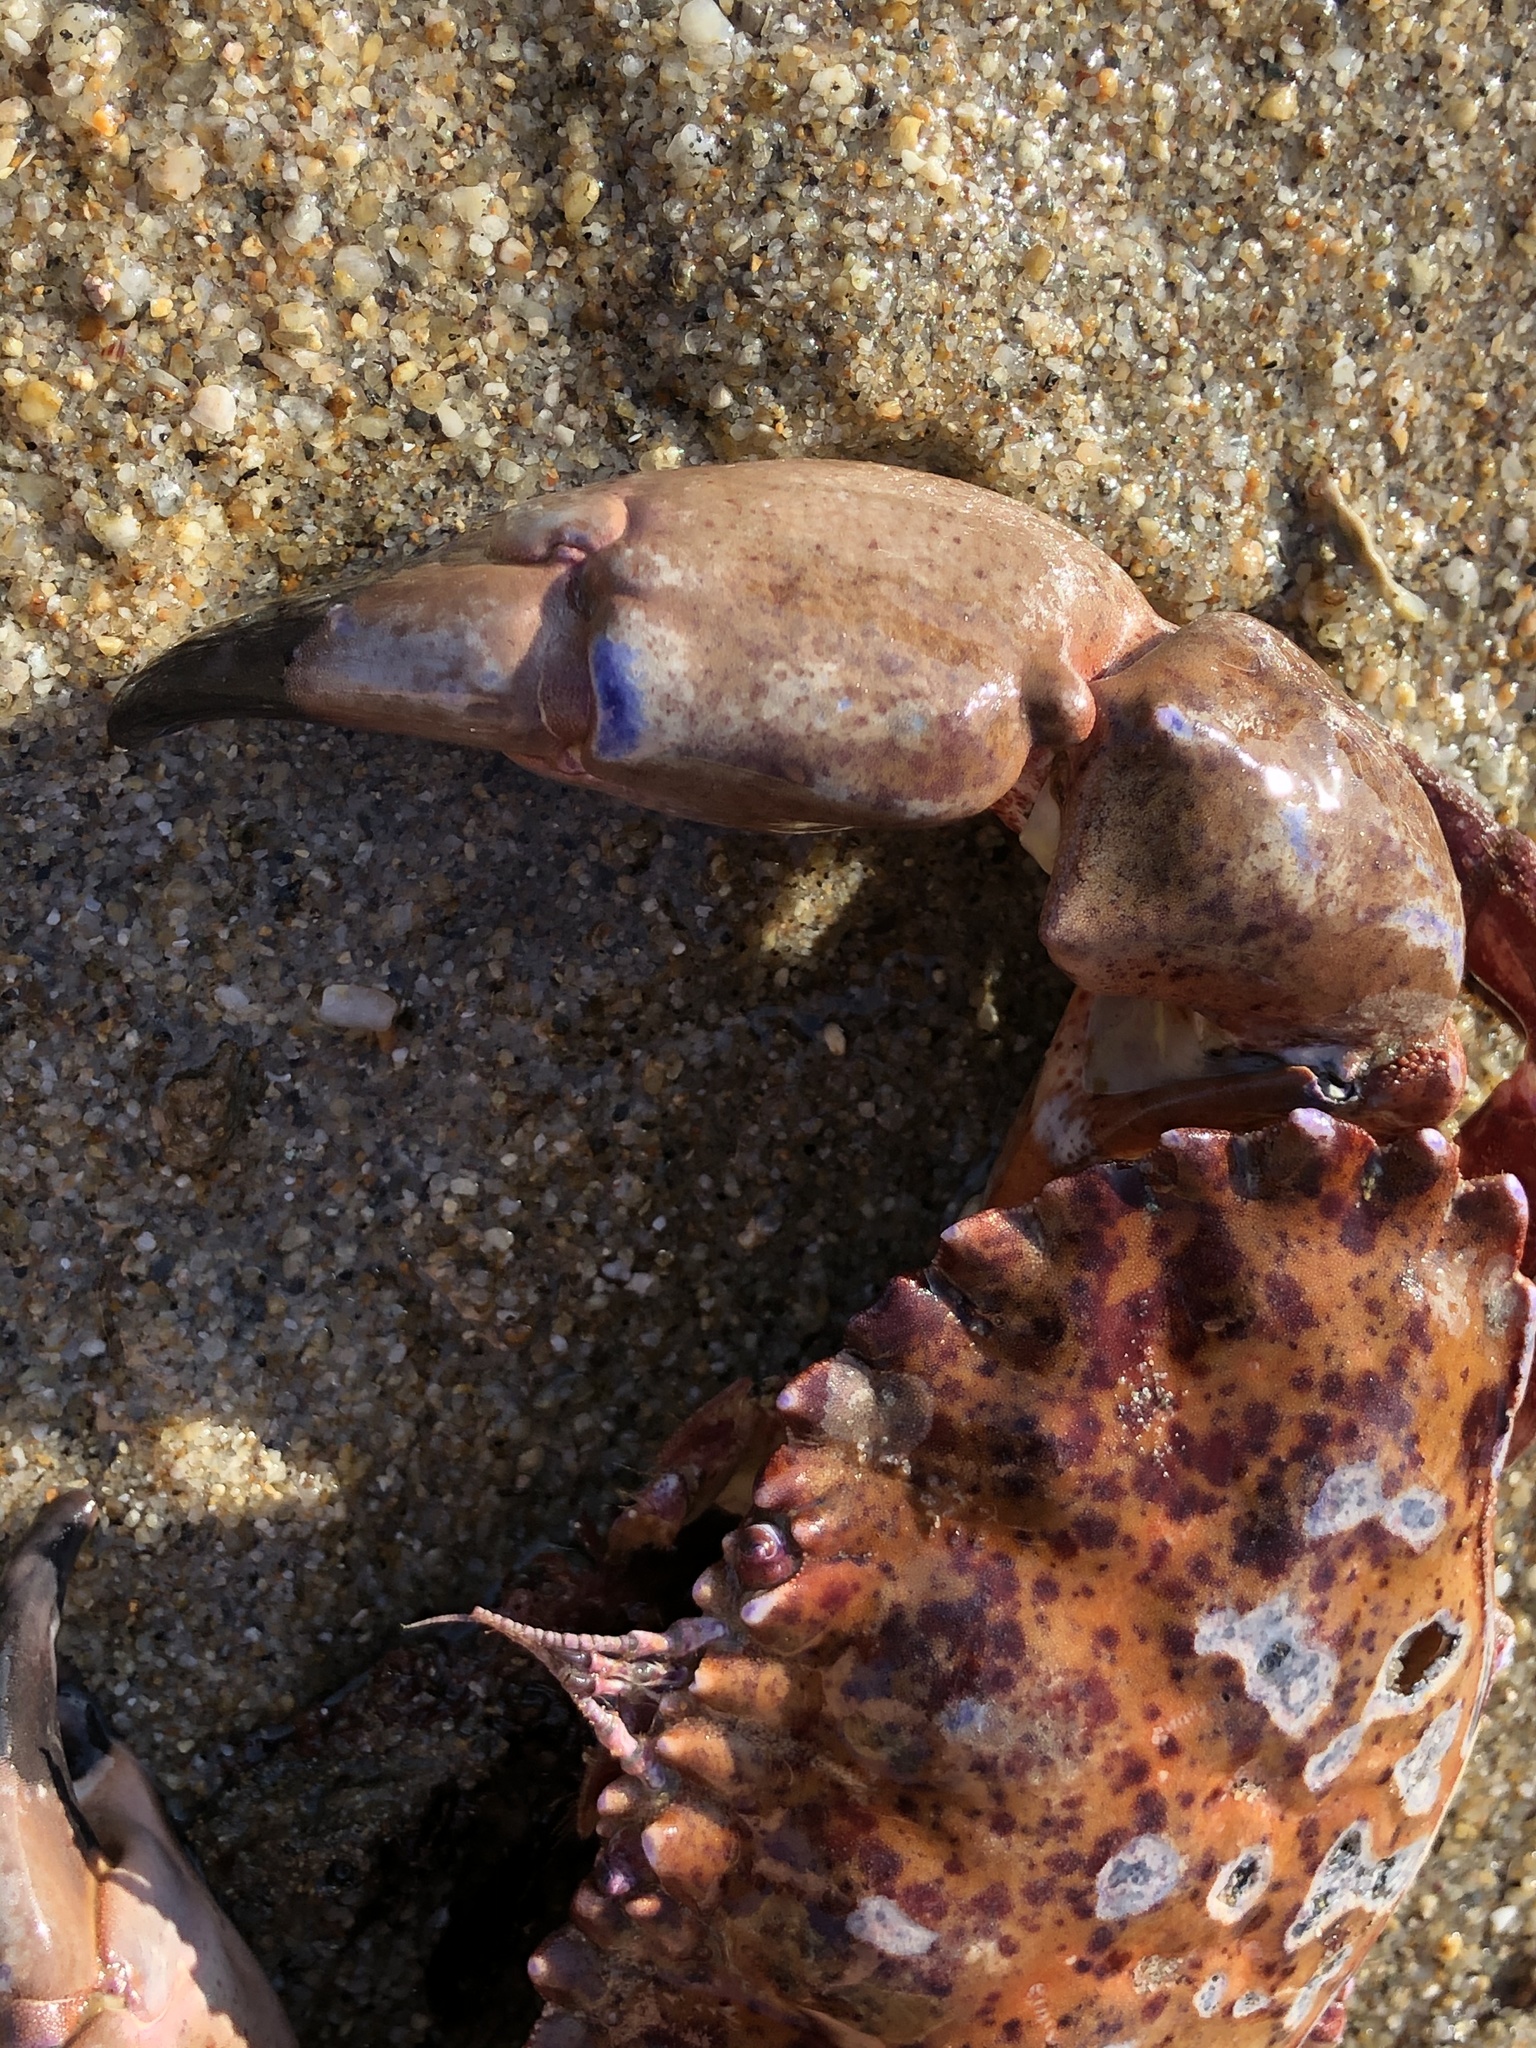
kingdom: Animalia
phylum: Arthropoda
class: Malacostraca
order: Decapoda
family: Cancridae
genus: Romaleon
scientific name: Romaleon antennarium
